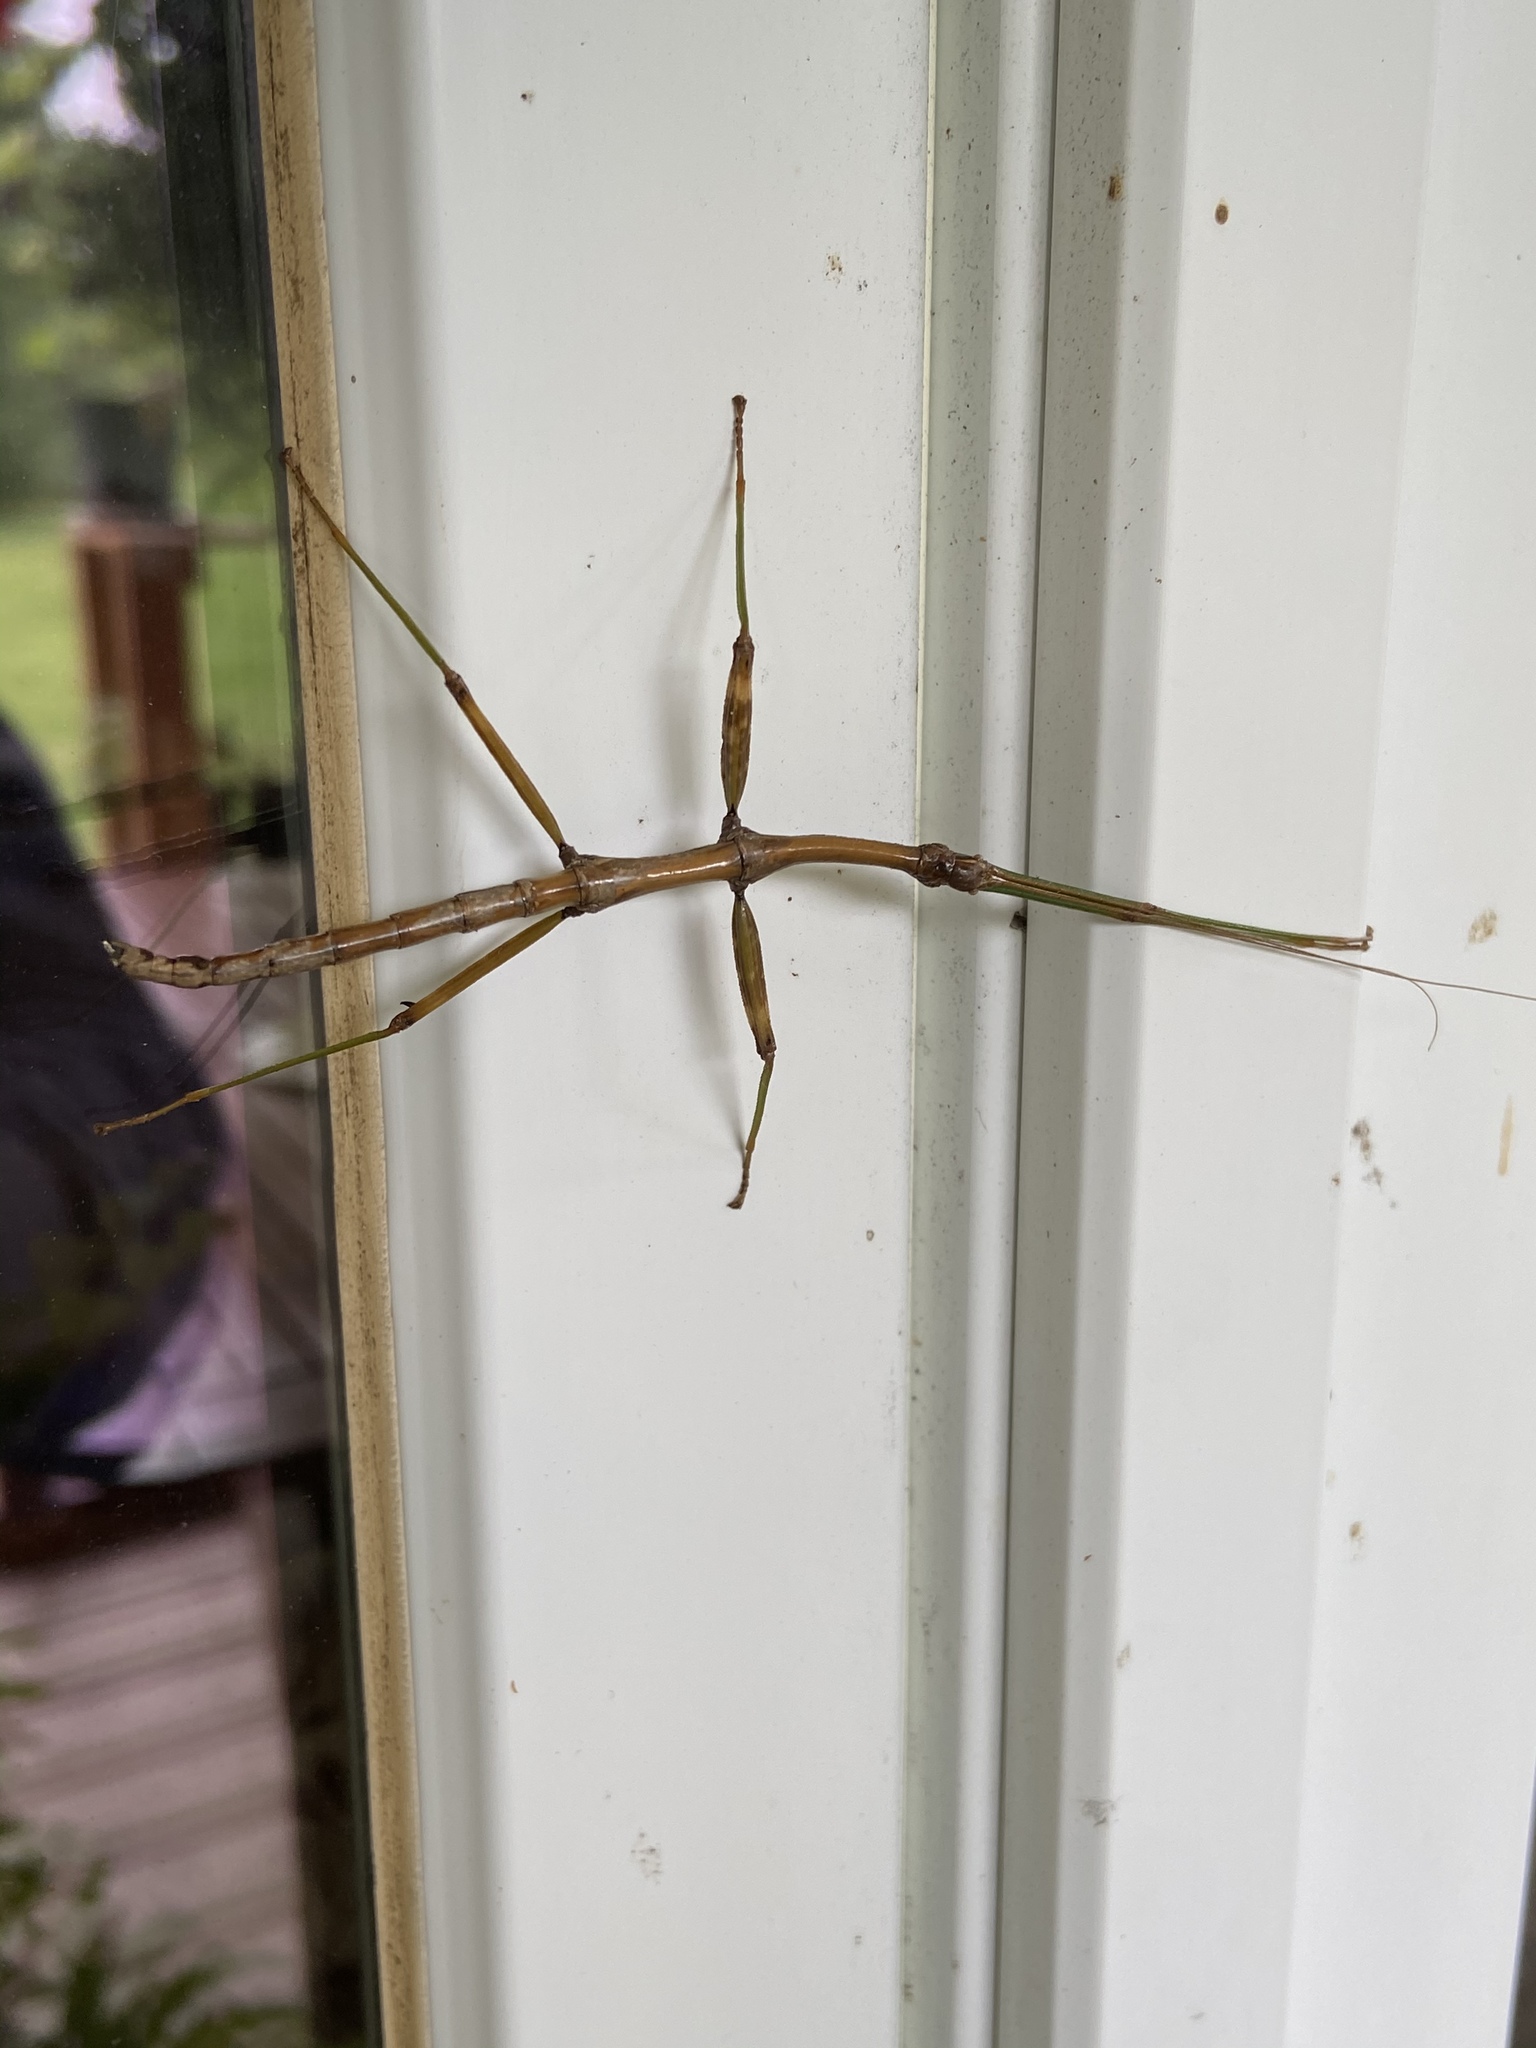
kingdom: Animalia
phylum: Arthropoda
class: Insecta
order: Phasmida
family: Diapheromeridae
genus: Diapheromera
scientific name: Diapheromera femorata
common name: Common american walkingstick
